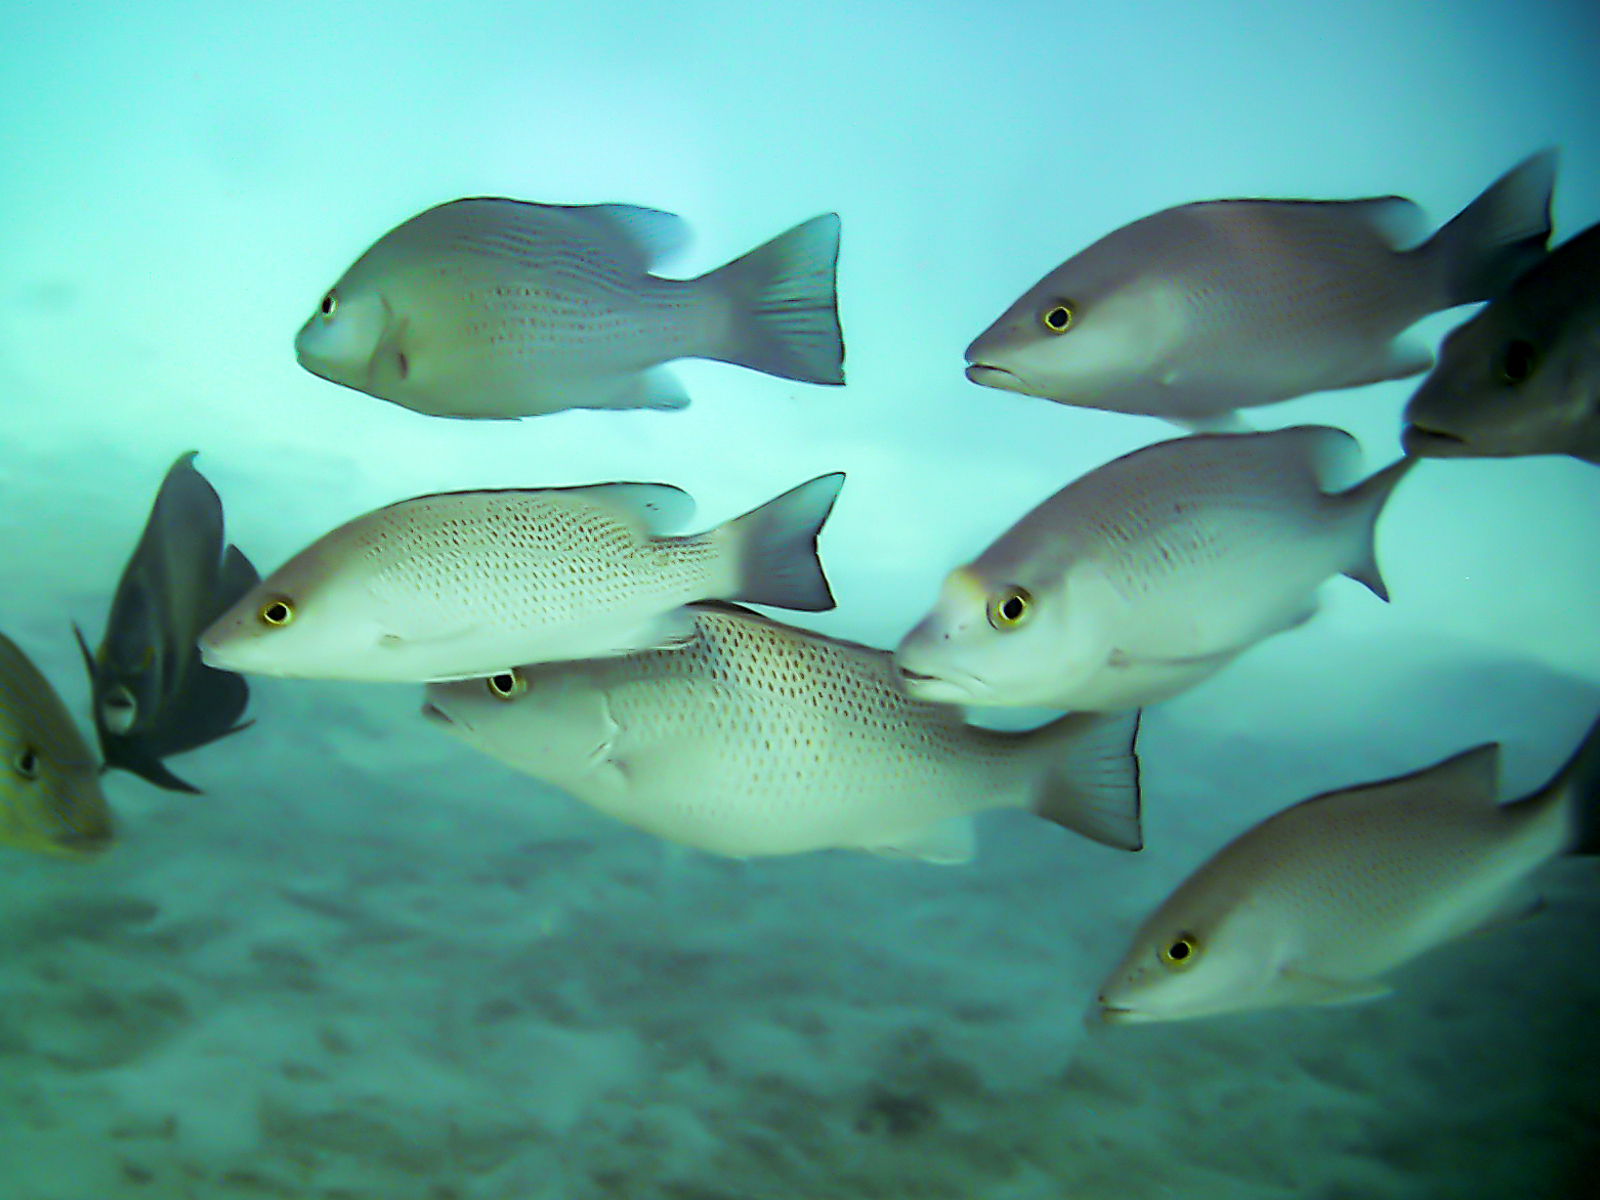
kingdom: Animalia
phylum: Chordata
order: Perciformes
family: Lutjanidae
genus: Lutjanus
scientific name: Lutjanus griseus
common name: Gray snapper
